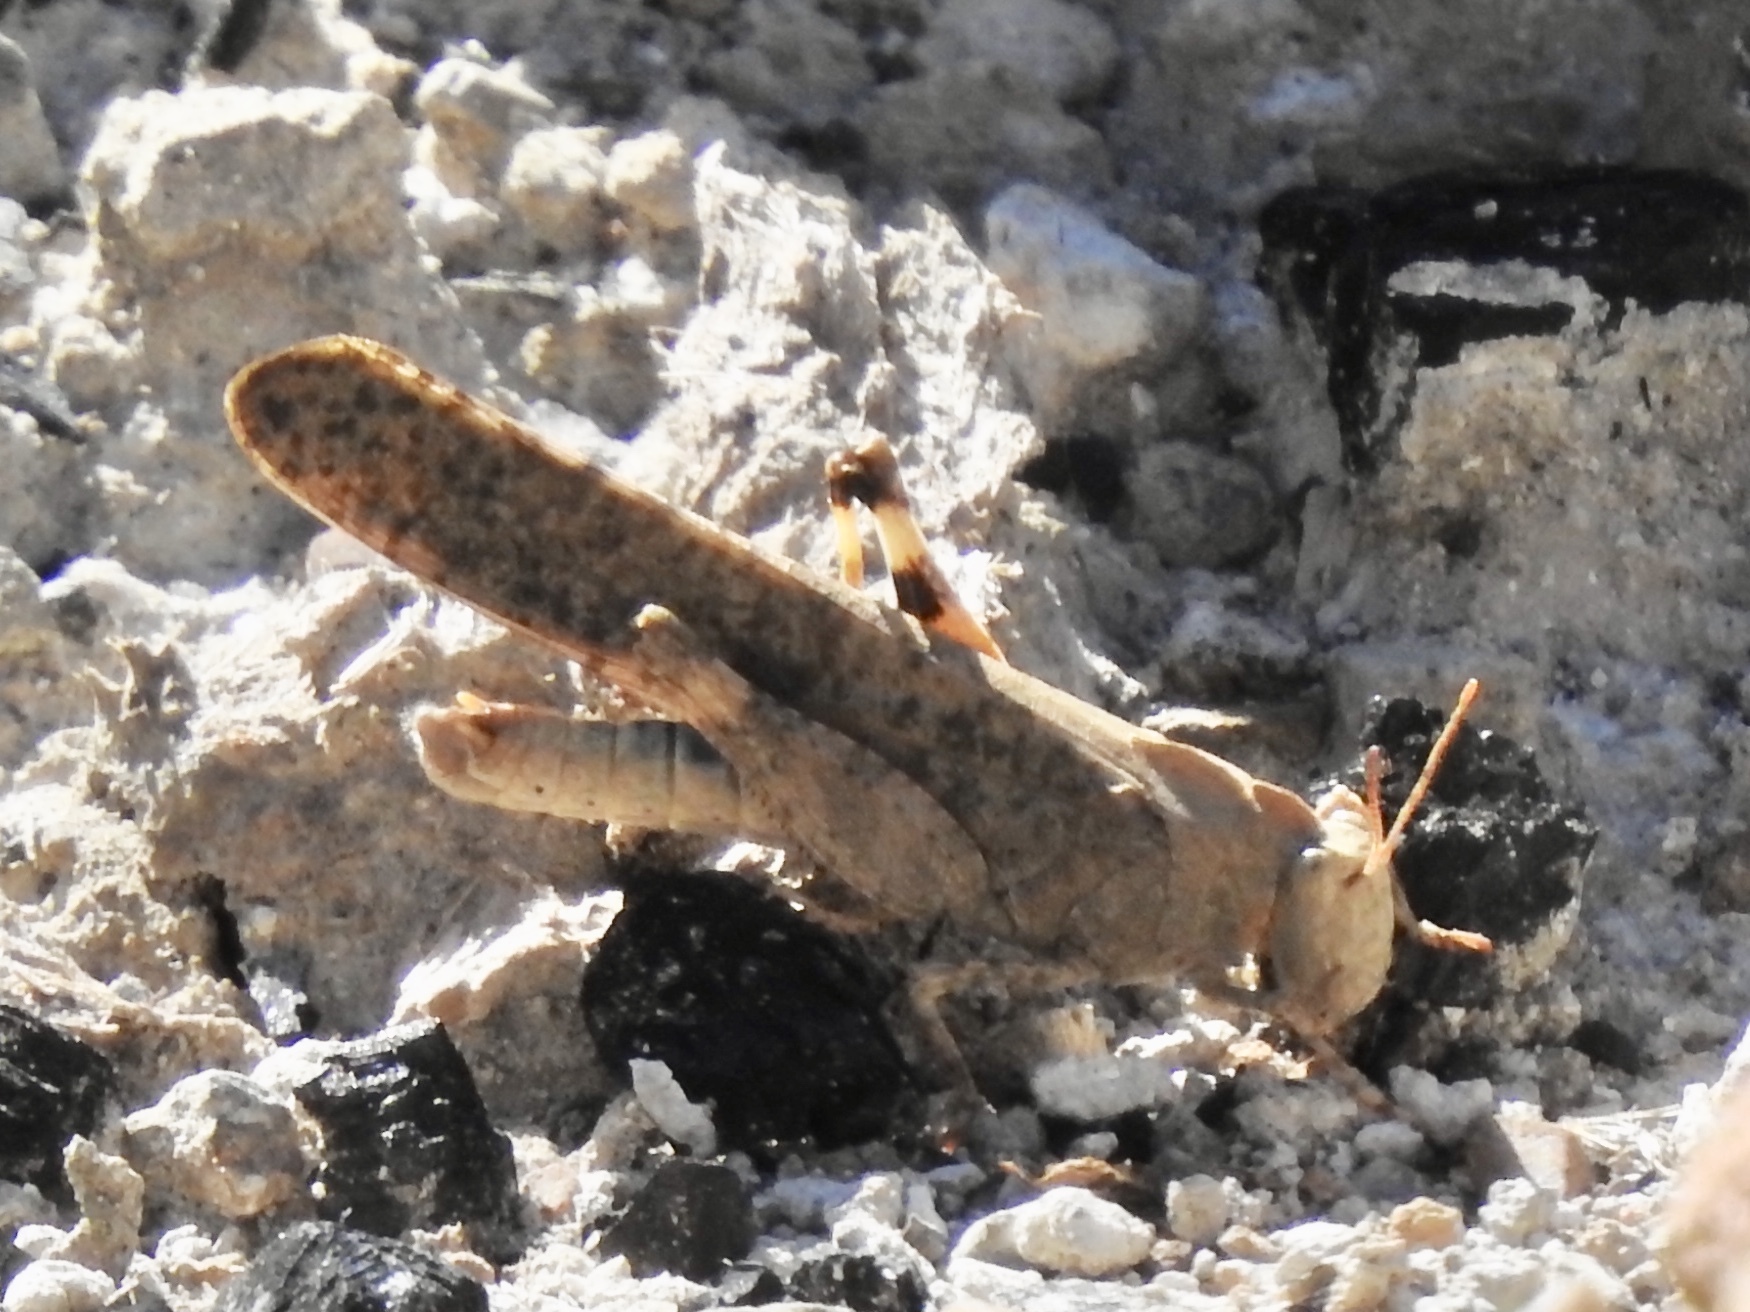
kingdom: Animalia
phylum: Arthropoda
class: Insecta
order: Orthoptera
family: Acrididae
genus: Dissosteira
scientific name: Dissosteira carolina
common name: Carolina grasshopper
